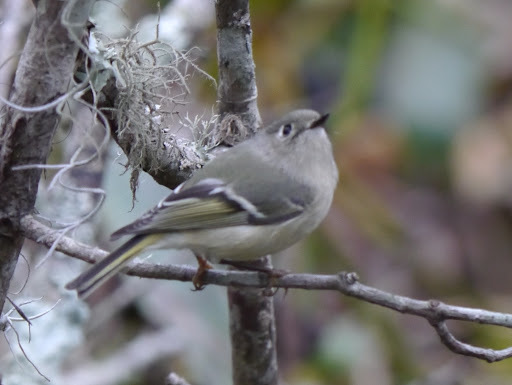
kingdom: Animalia
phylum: Chordata
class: Aves
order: Passeriformes
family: Regulidae
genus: Regulus
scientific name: Regulus calendula
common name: Ruby-crowned kinglet
